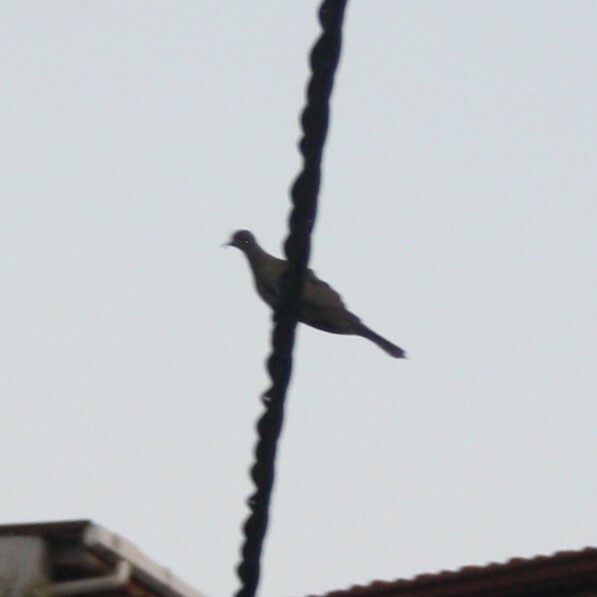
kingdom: Animalia
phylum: Chordata
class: Aves
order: Columbiformes
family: Columbidae
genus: Spilopelia
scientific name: Spilopelia senegalensis
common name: Laughing dove
